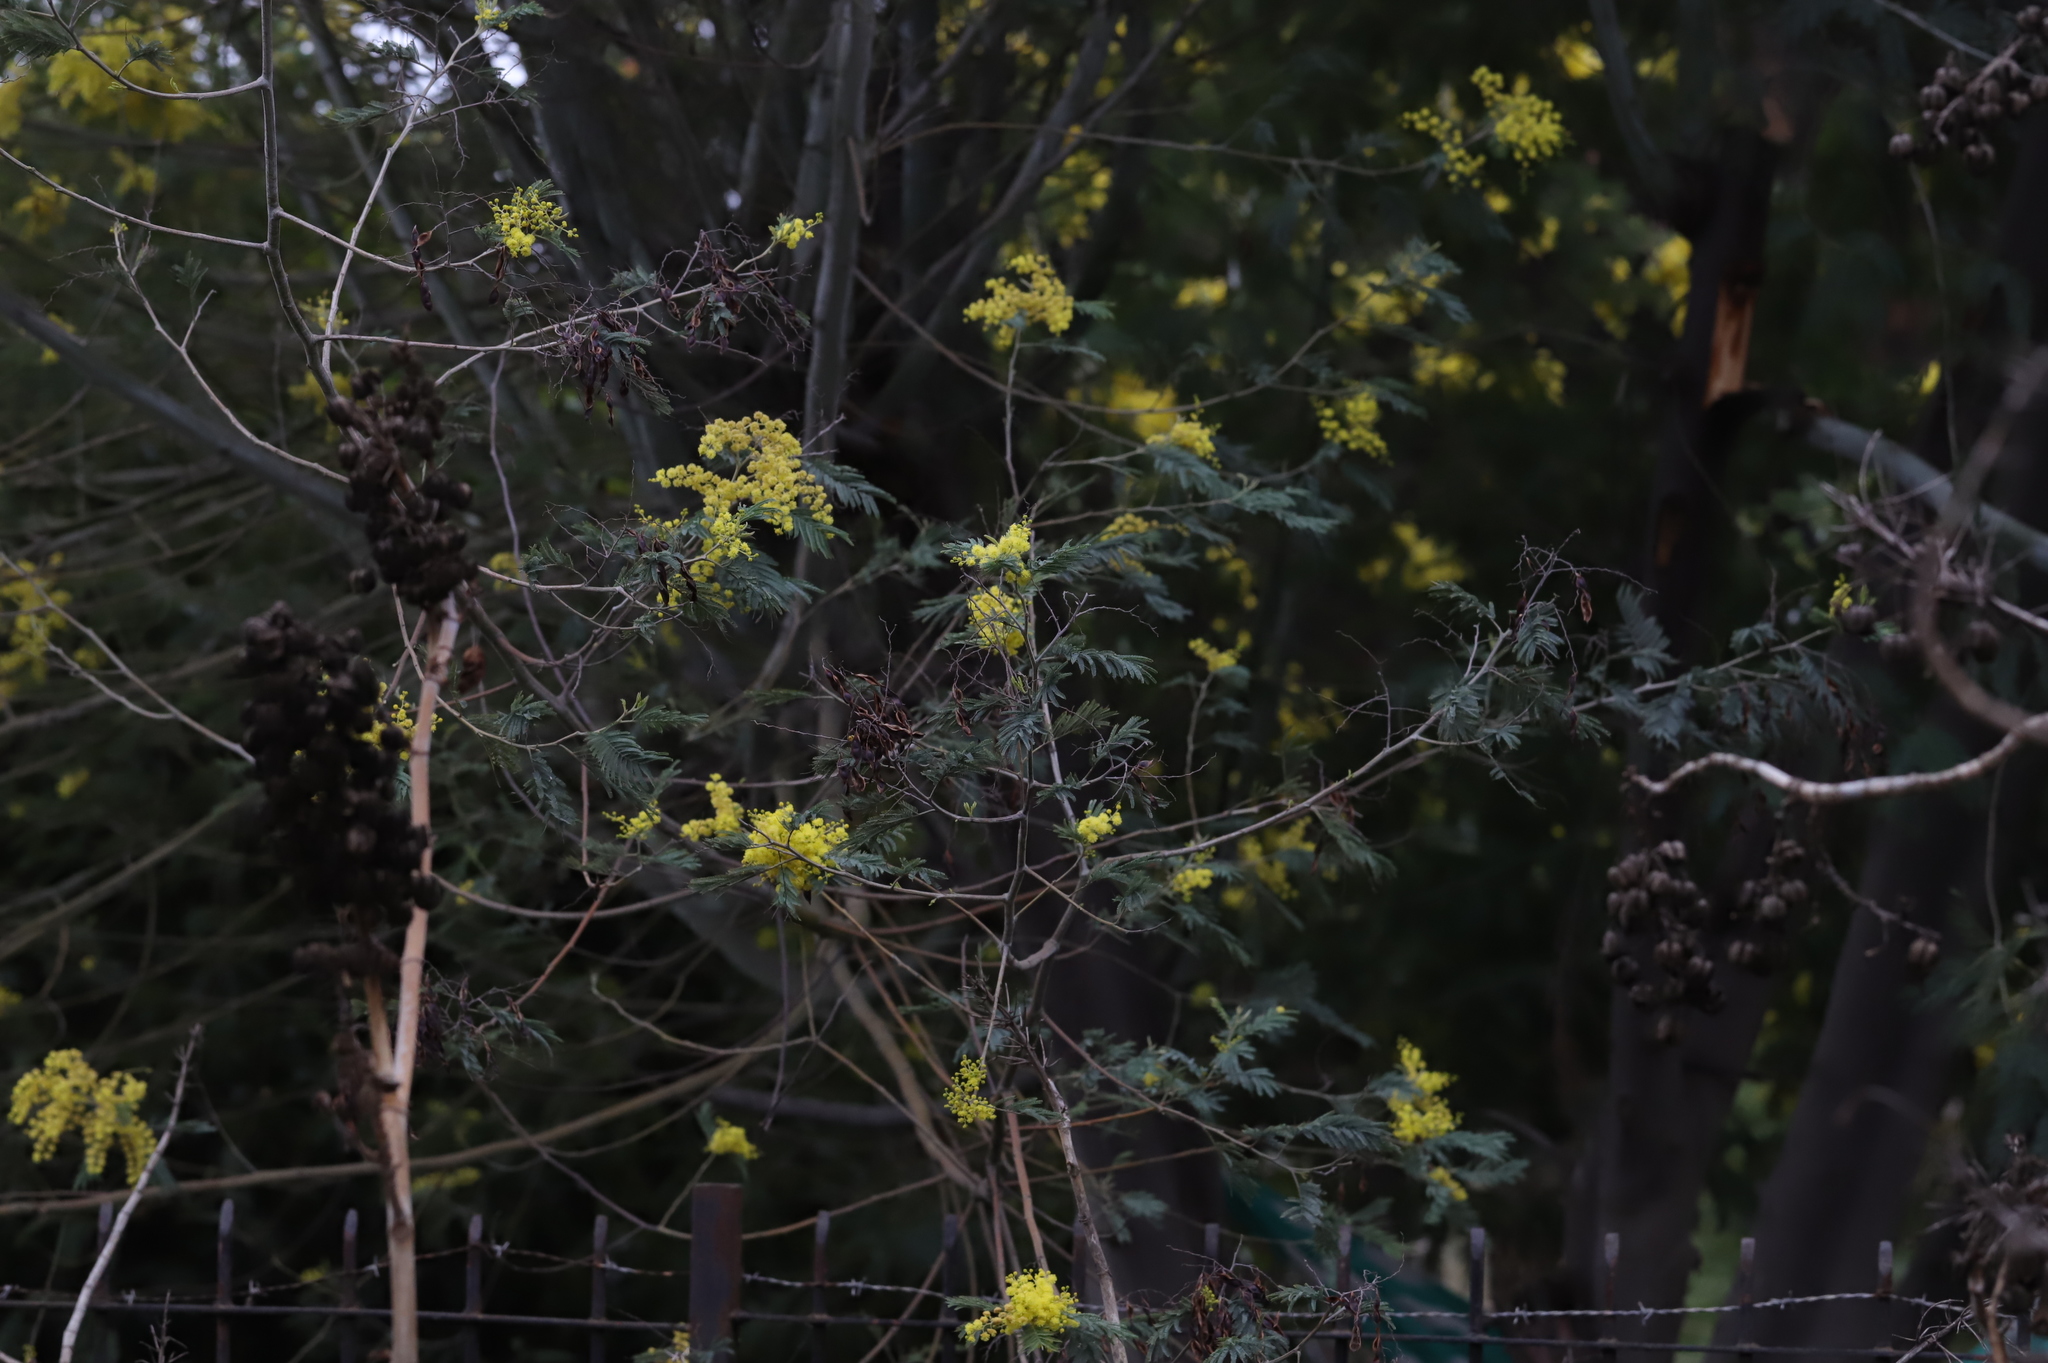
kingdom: Plantae
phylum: Tracheophyta
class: Magnoliopsida
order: Fabales
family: Fabaceae
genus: Acacia
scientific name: Acacia dealbata
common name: Silver wattle
